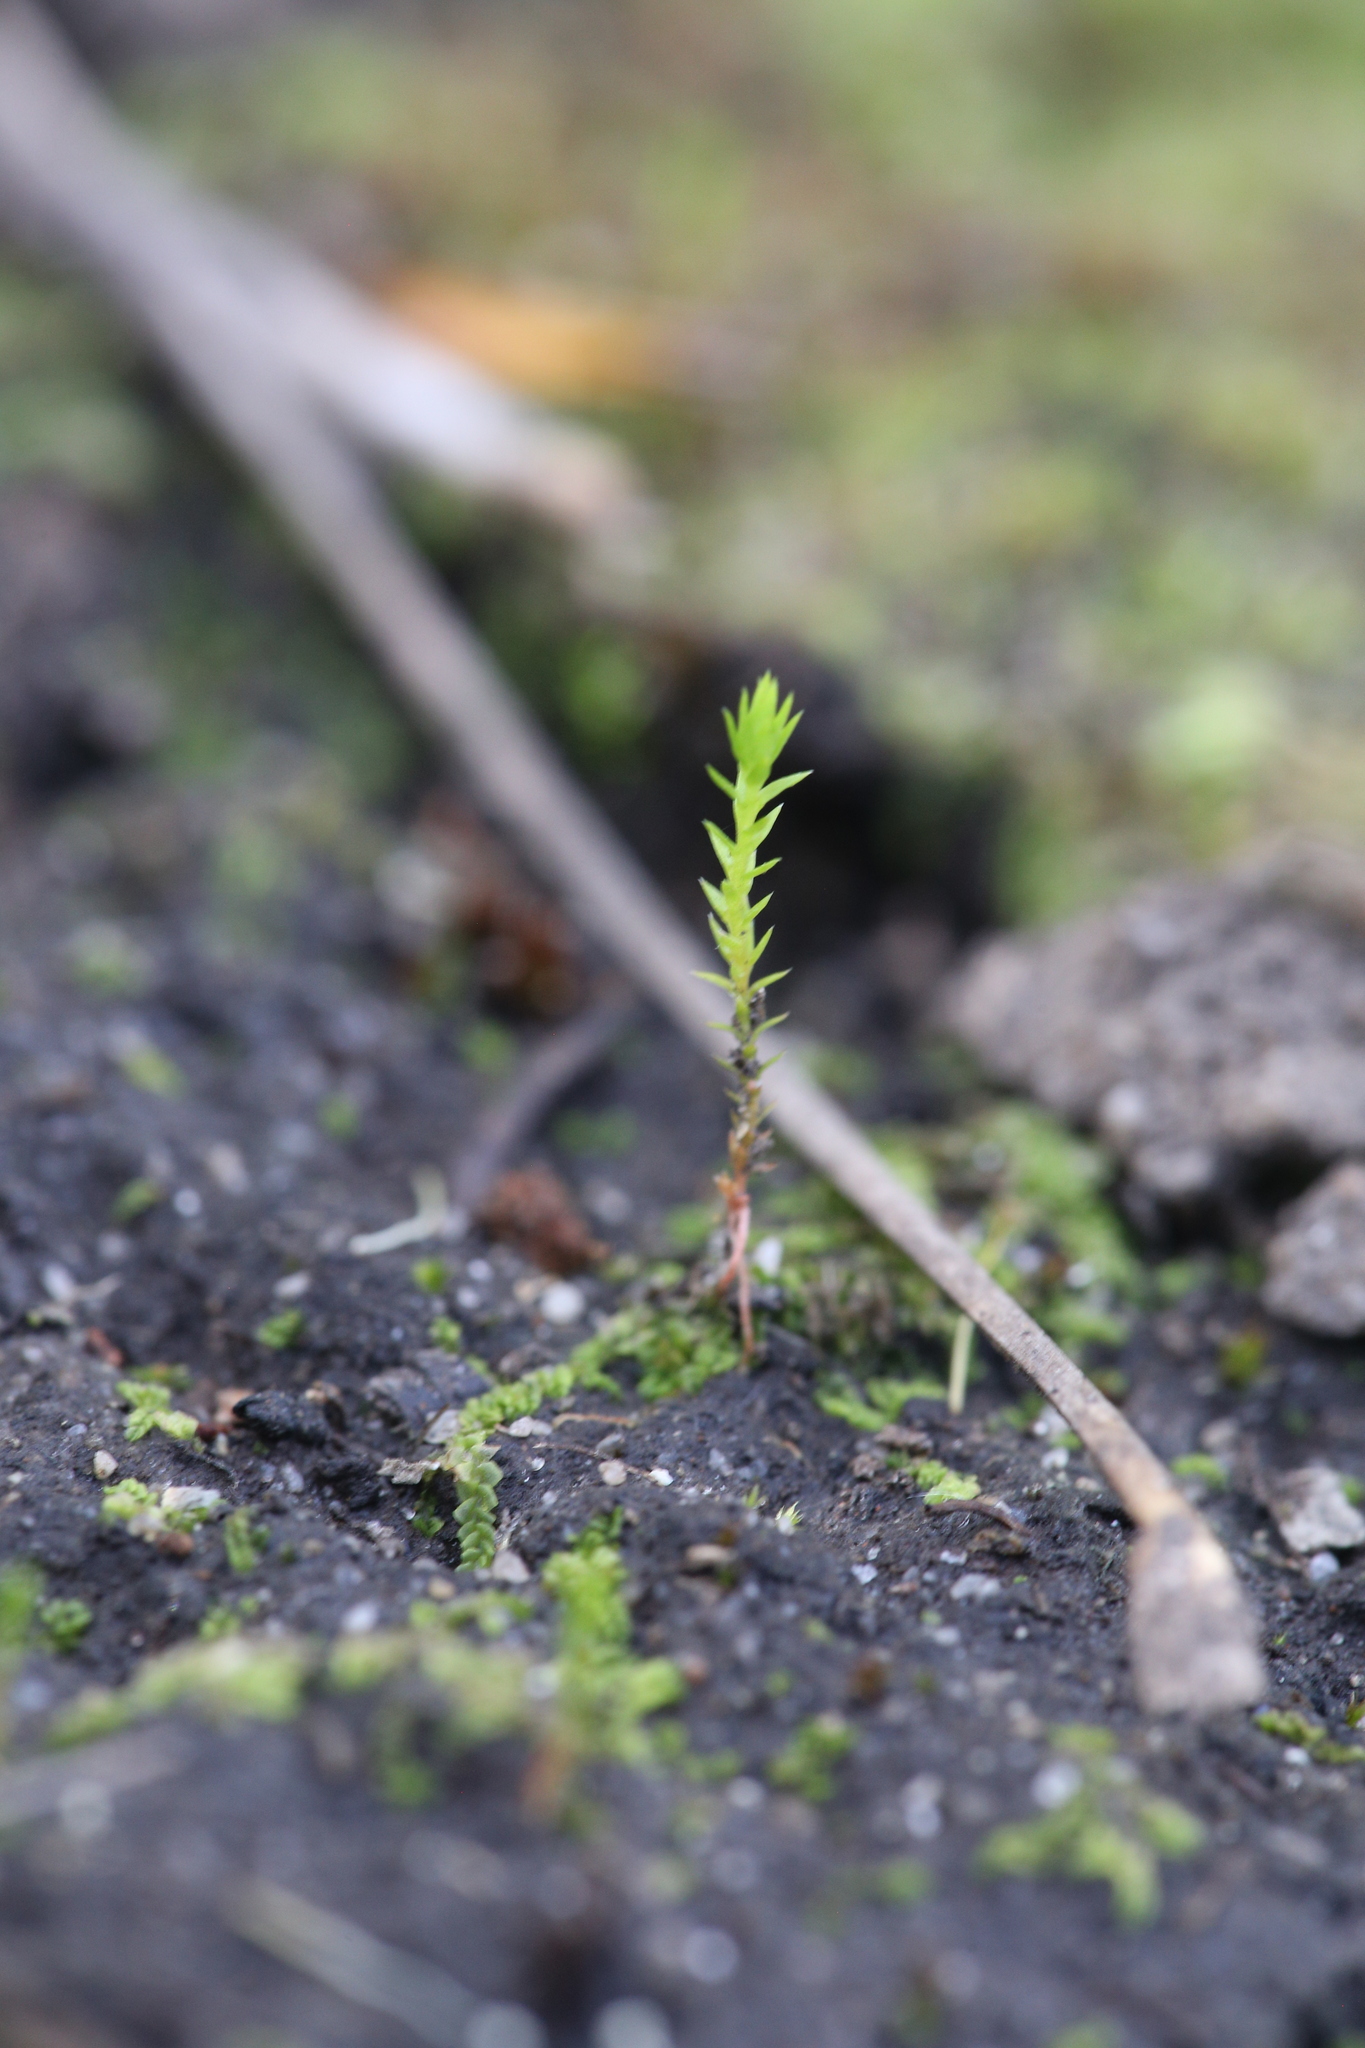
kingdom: Plantae
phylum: Tracheophyta
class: Lycopodiopsida
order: Selaginellales
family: Selaginellaceae
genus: Selaginella
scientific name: Selaginella gracillima
